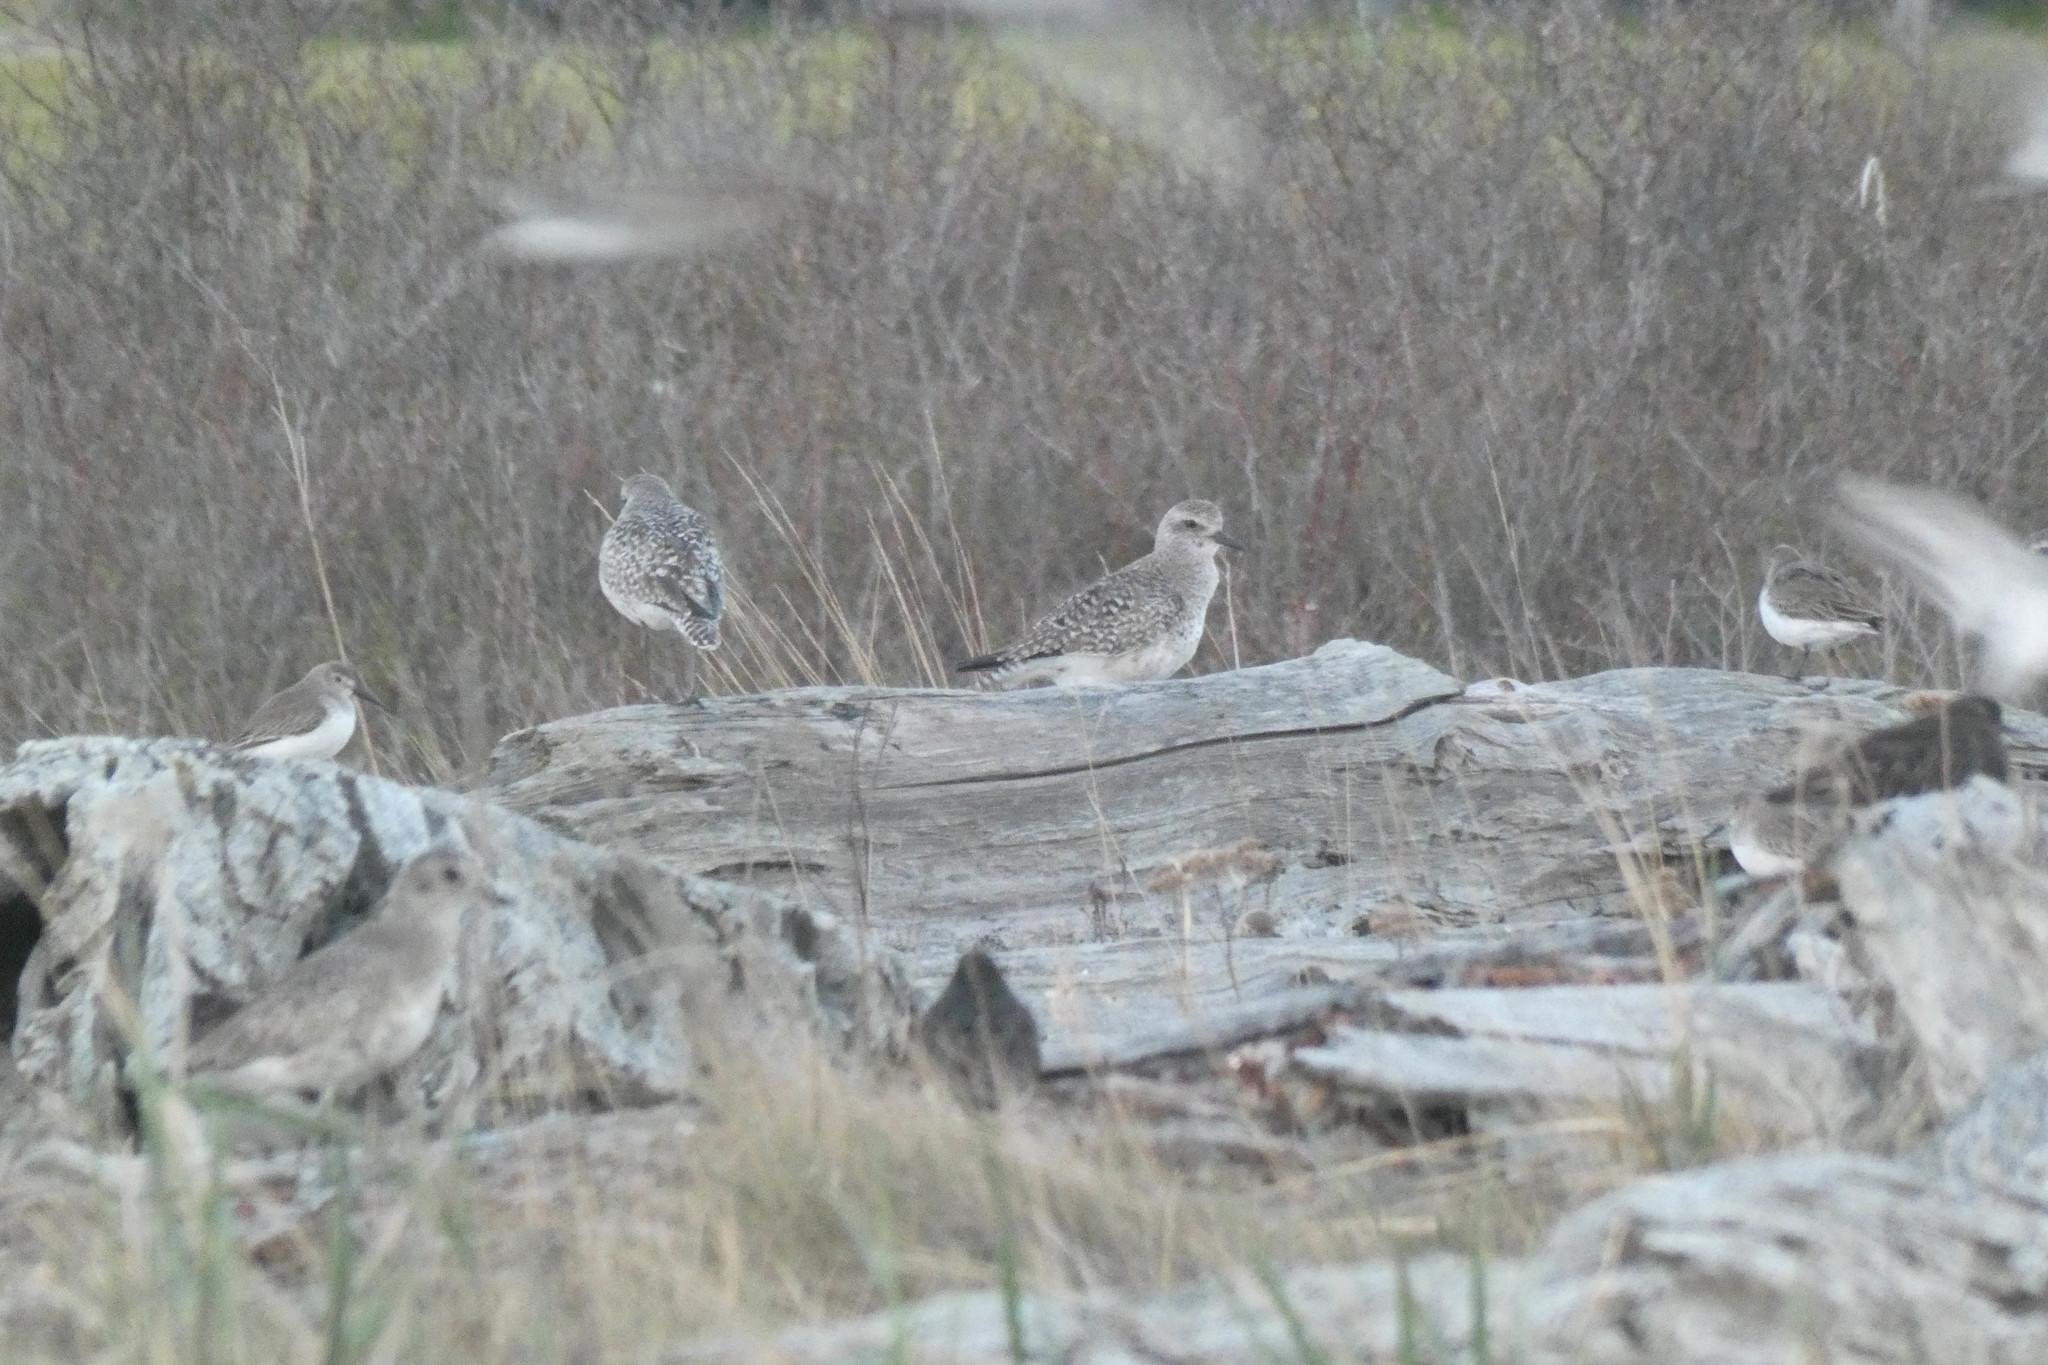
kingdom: Animalia
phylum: Chordata
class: Aves
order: Charadriiformes
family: Charadriidae
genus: Pluvialis
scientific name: Pluvialis squatarola
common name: Grey plover
